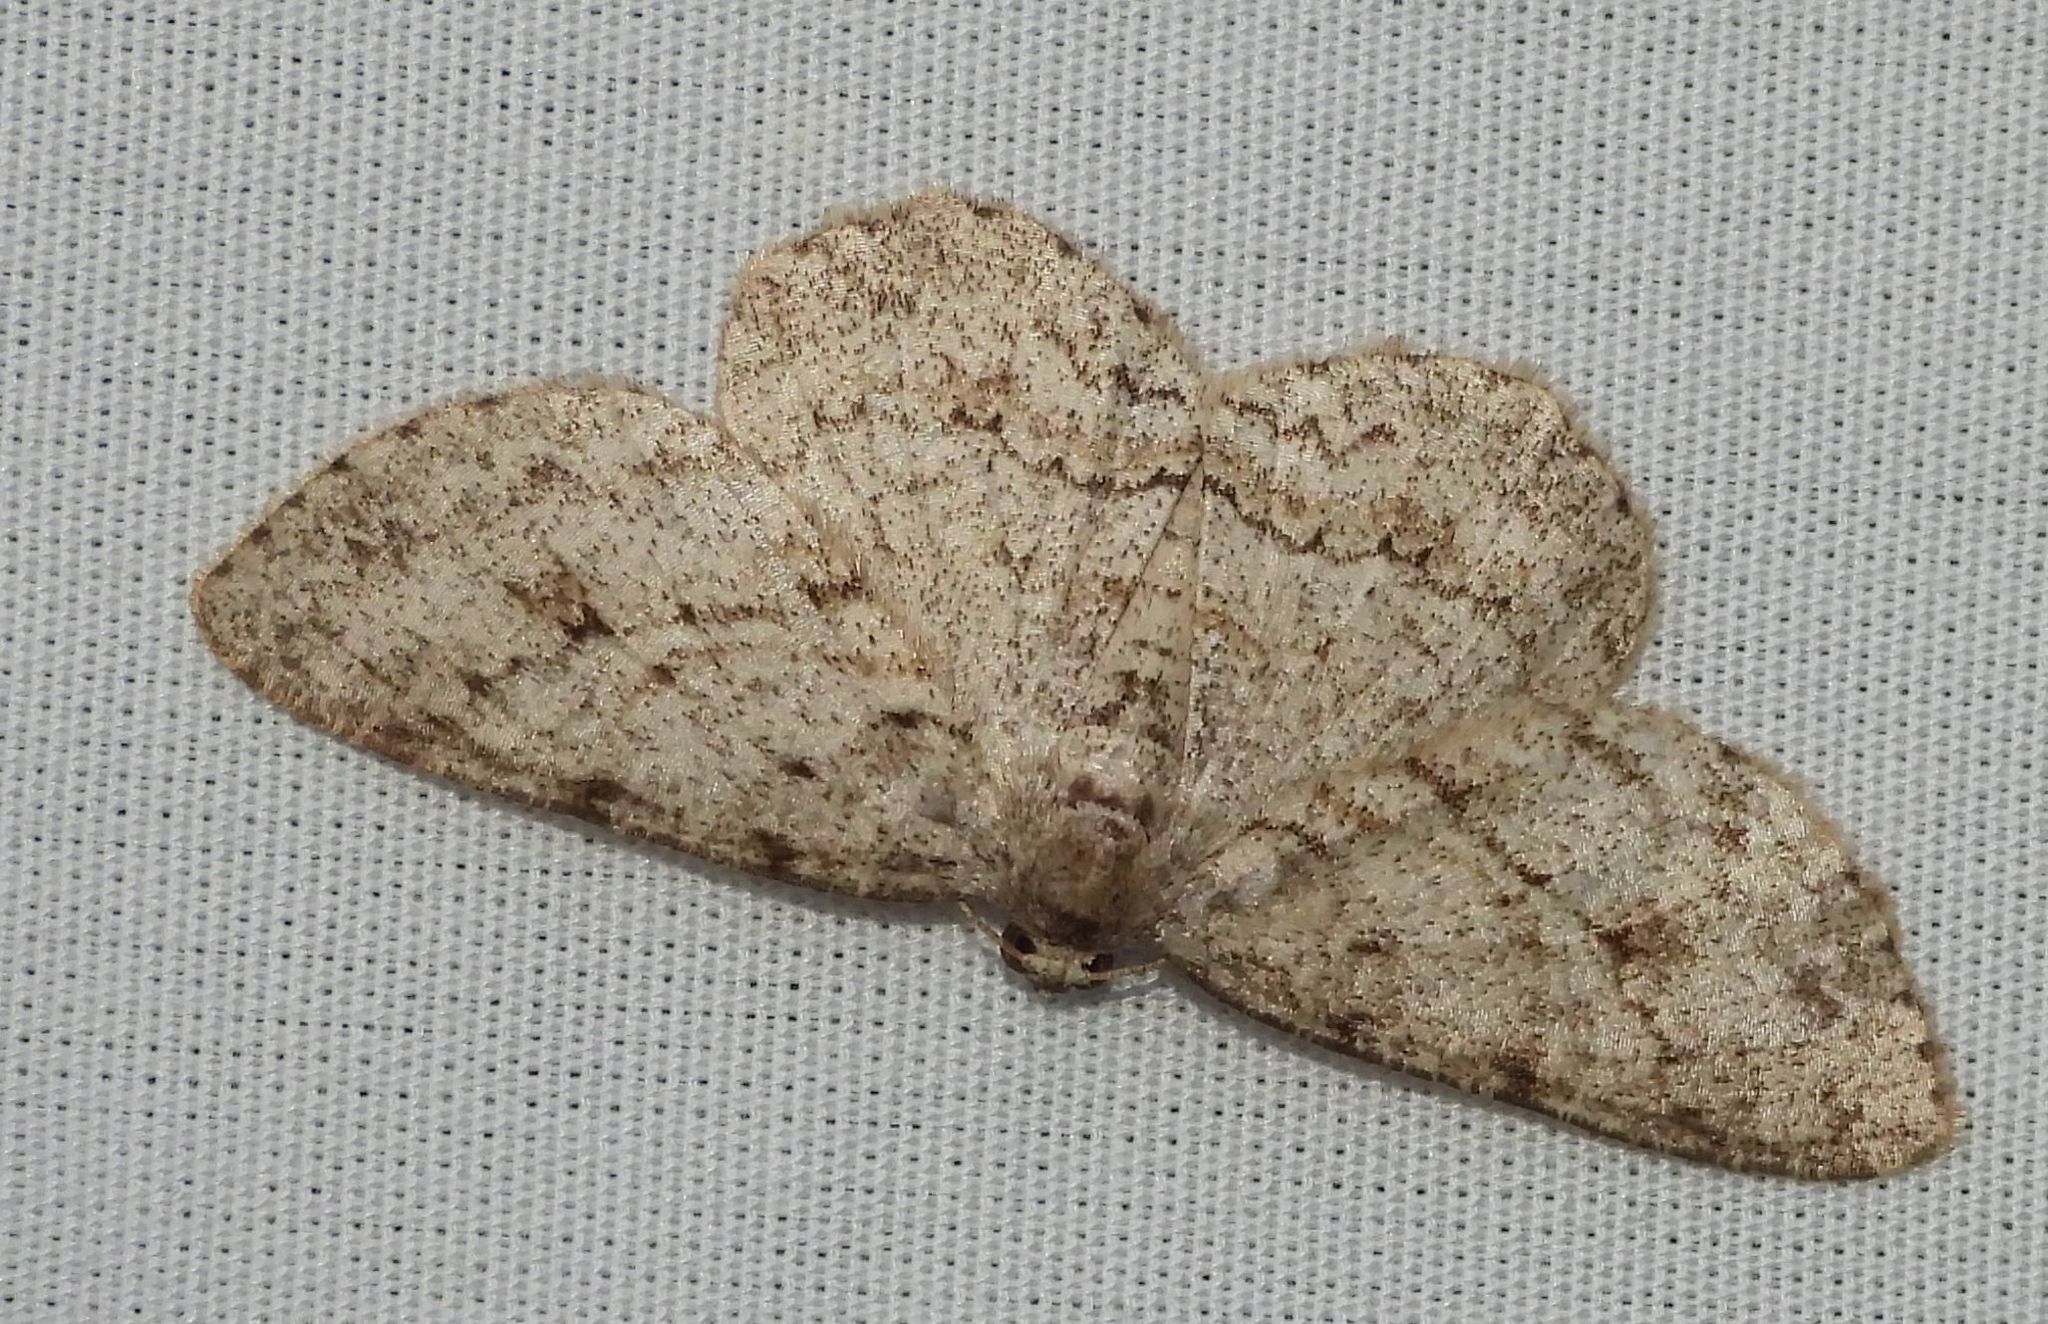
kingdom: Animalia
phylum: Arthropoda
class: Insecta
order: Lepidoptera
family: Geometridae
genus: Ectropis
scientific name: Ectropis crepuscularia
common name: Engrailed
